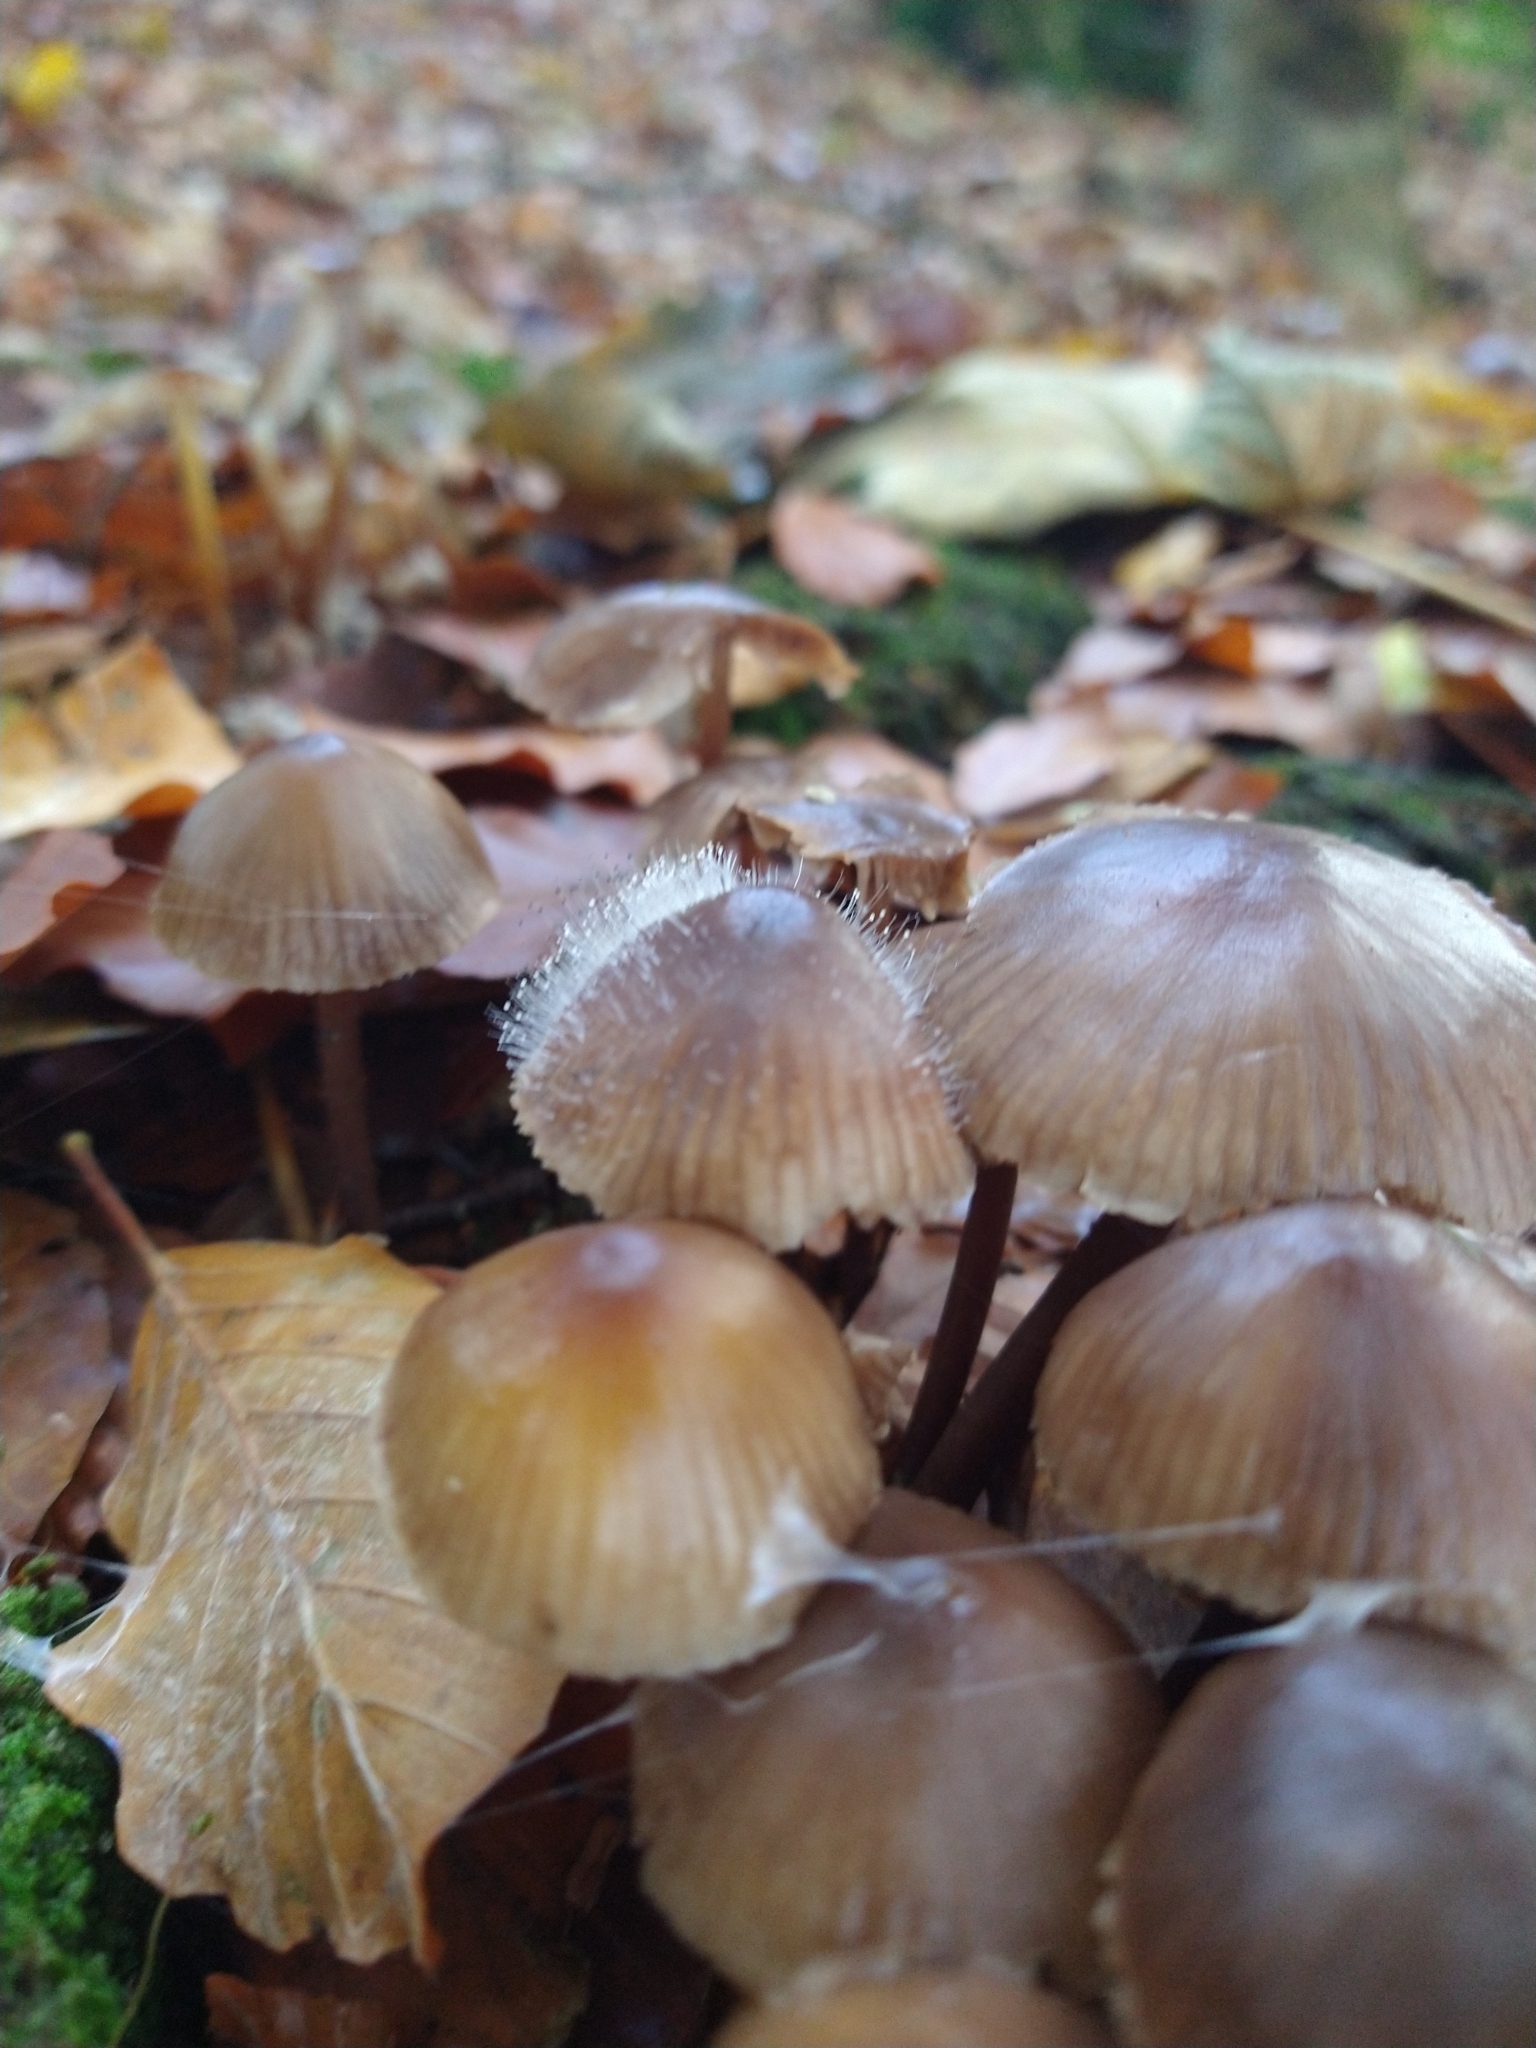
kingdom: Fungi
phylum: Mucoromycota
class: Mucoromycetes
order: Mucorales
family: Phycomycetaceae
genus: Spinellus
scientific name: Spinellus fusiger
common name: Bonnet mould
